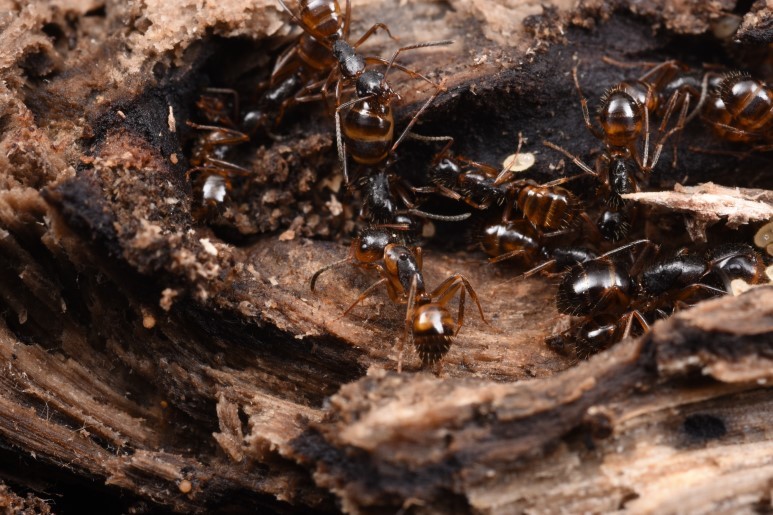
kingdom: Animalia
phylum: Arthropoda
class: Insecta
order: Hymenoptera
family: Formicidae
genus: Camponotus
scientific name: Camponotus nipponensis
